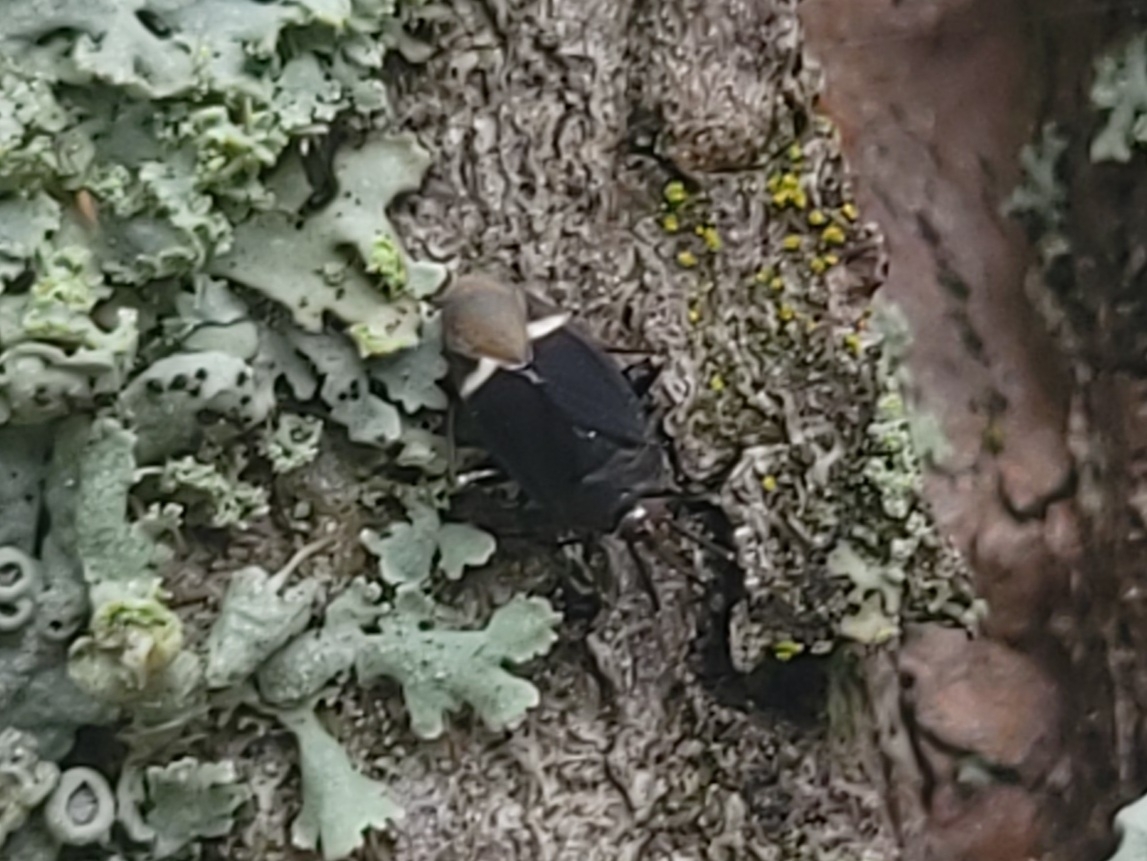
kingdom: Animalia
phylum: Arthropoda
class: Insecta
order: Hemiptera
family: Miridae
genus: Myiomma
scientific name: Myiomma cixiiforme
